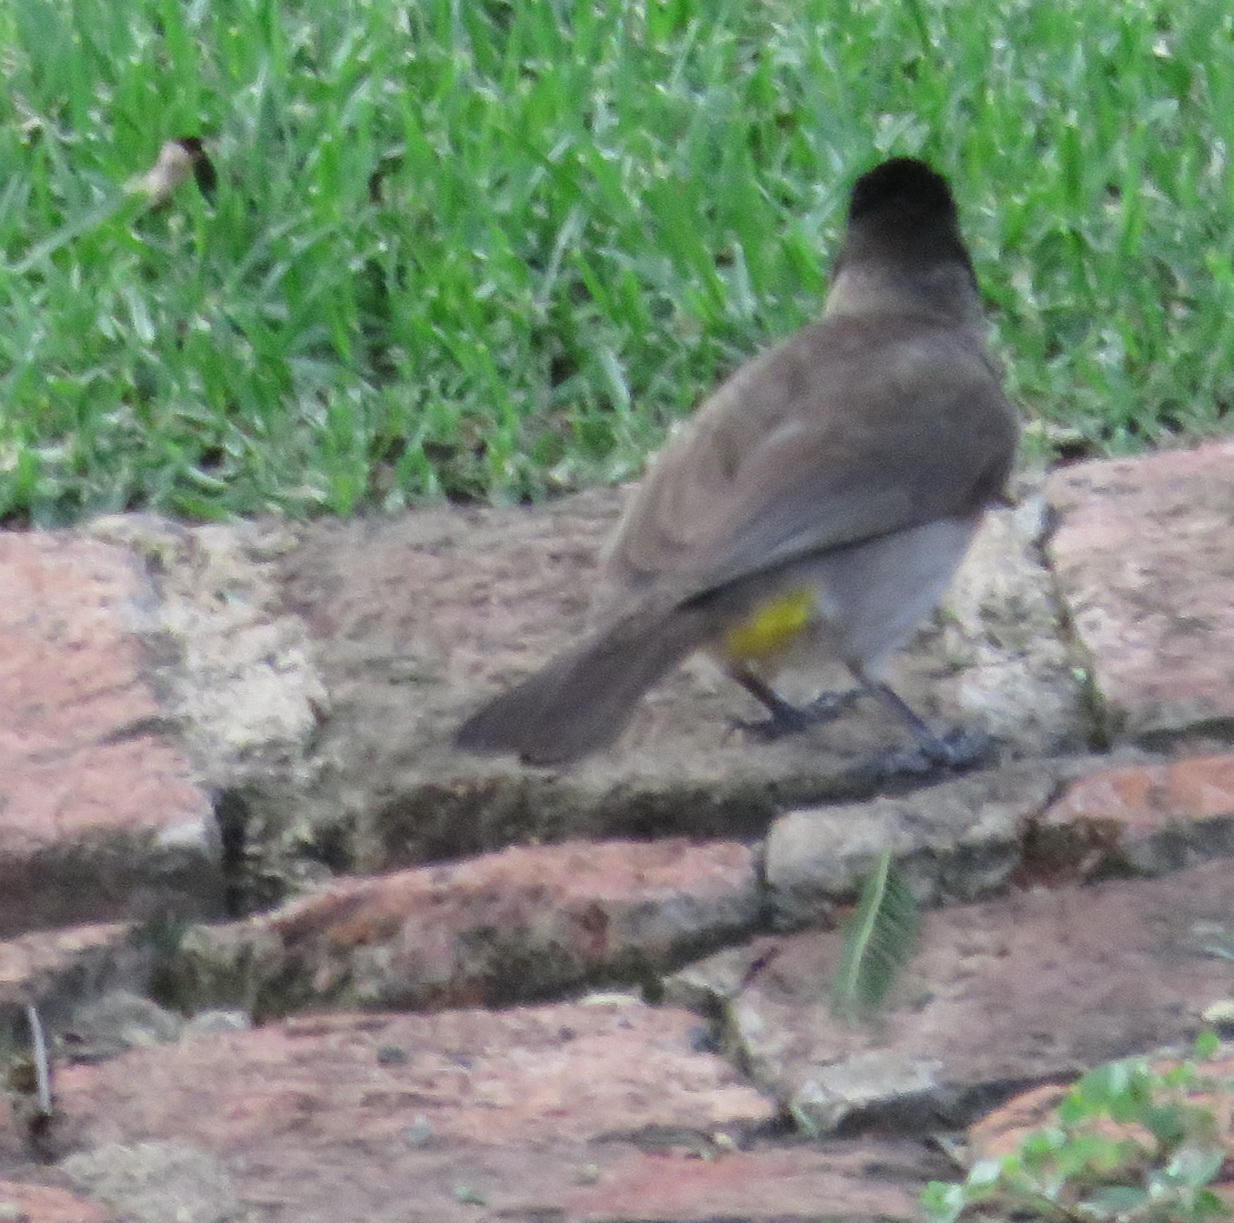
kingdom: Animalia
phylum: Chordata
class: Aves
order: Passeriformes
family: Pycnonotidae
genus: Pycnonotus
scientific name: Pycnonotus barbatus
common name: Common bulbul
